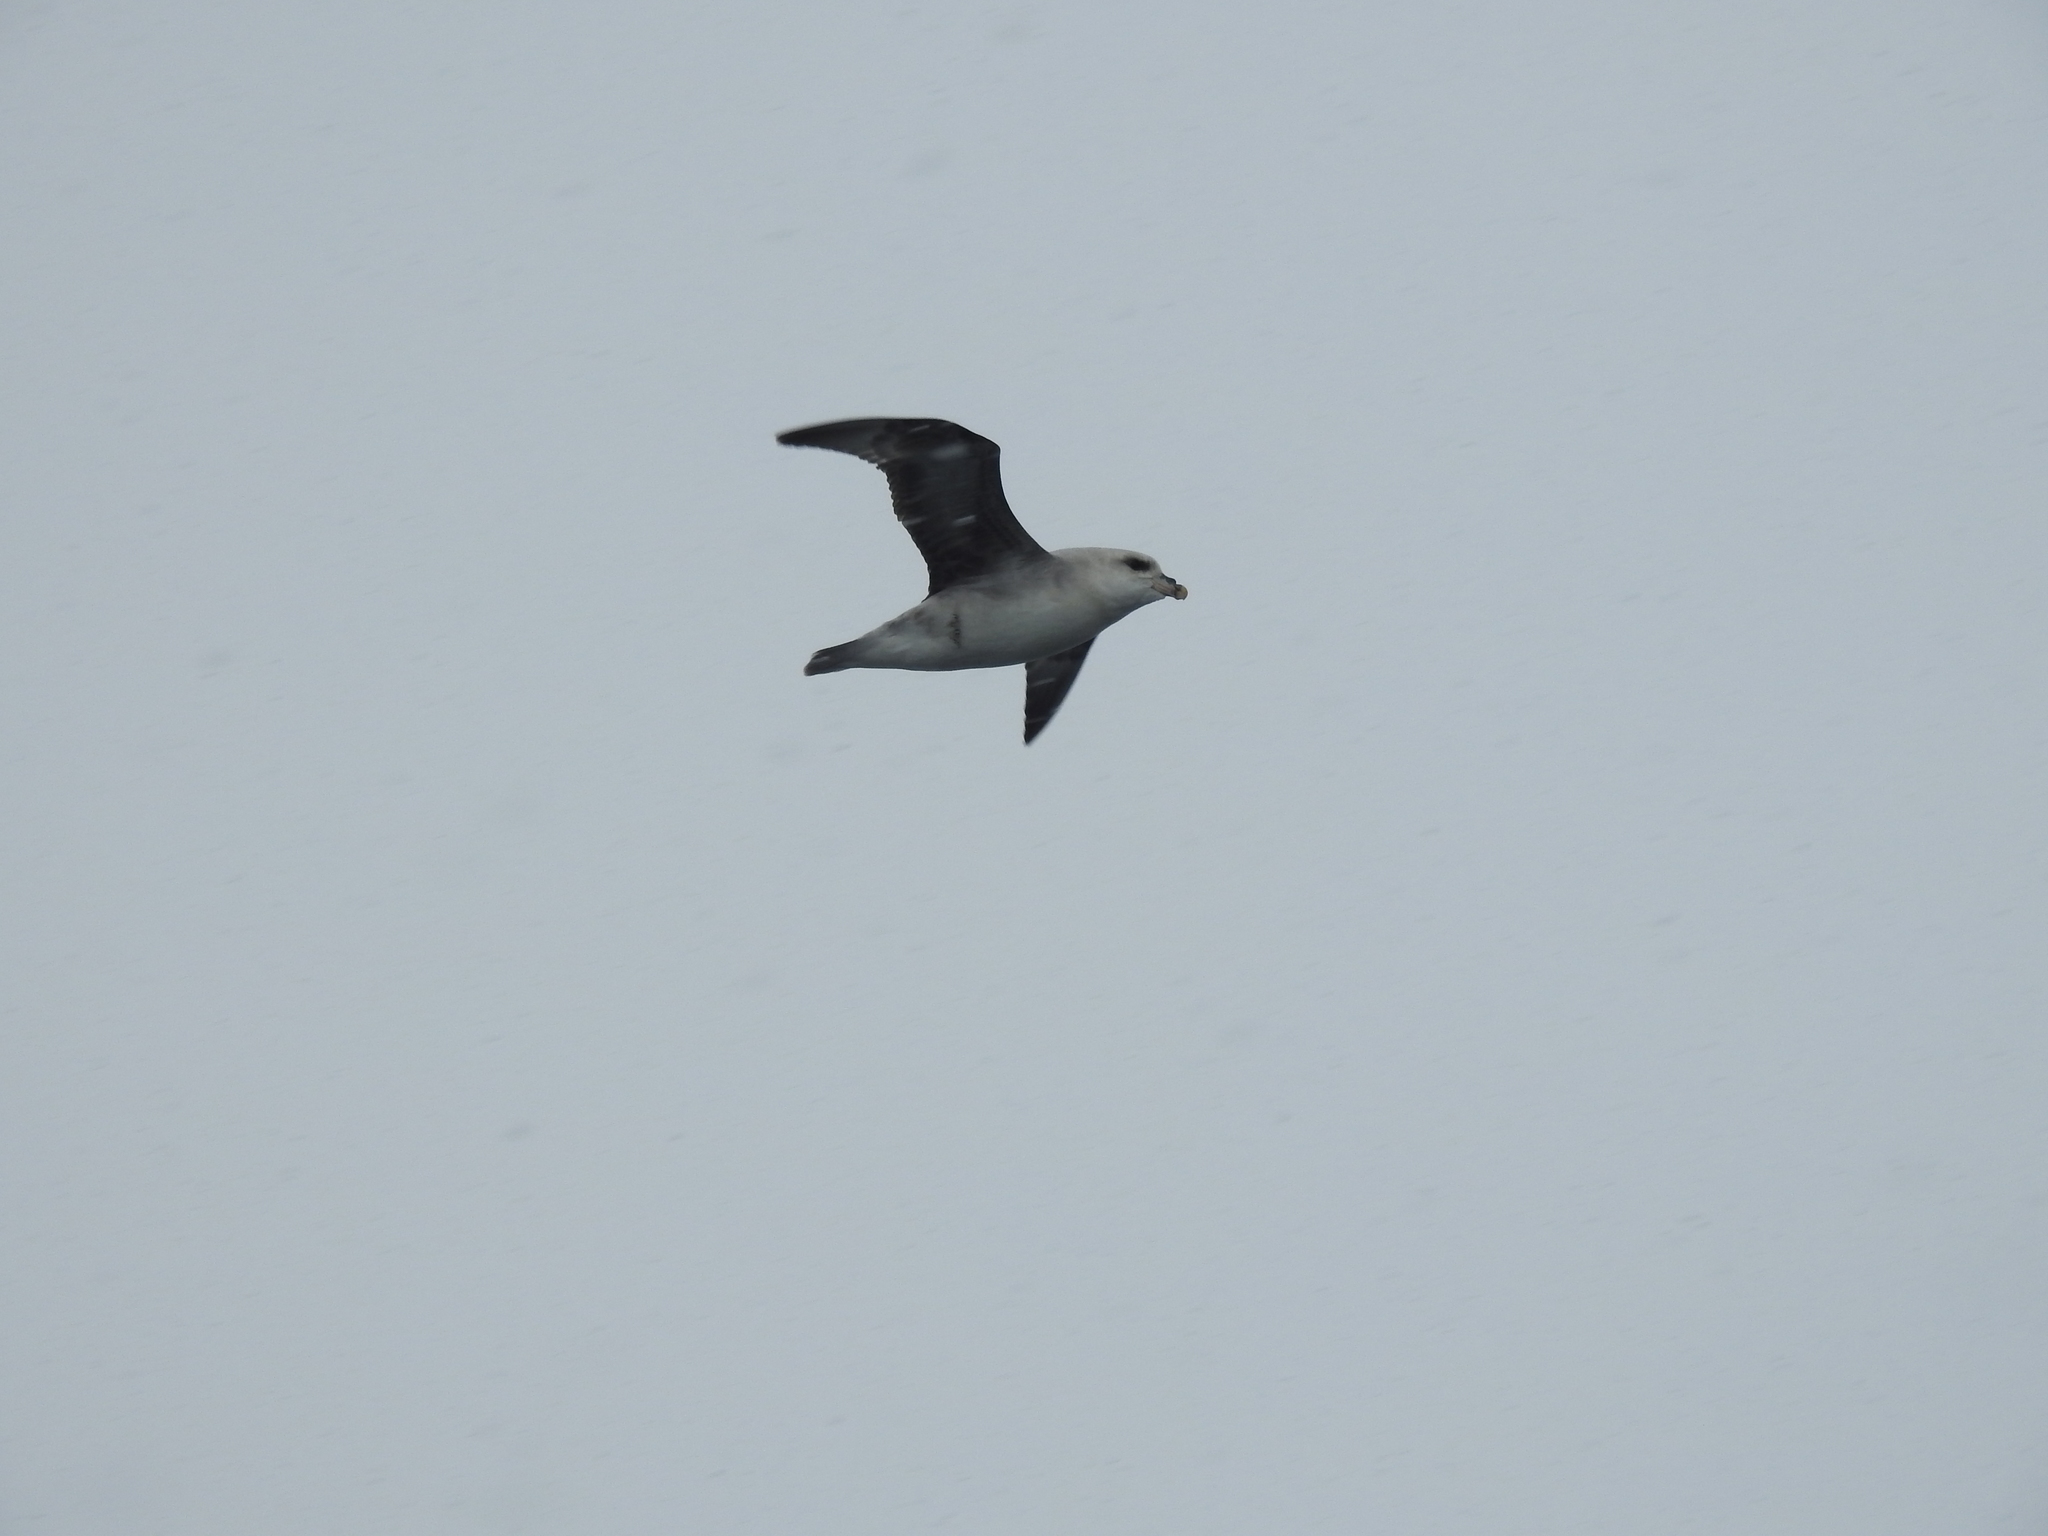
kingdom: Animalia
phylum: Chordata
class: Aves
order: Procellariiformes
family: Procellariidae
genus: Fulmarus
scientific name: Fulmarus glacialis
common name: Northern fulmar
